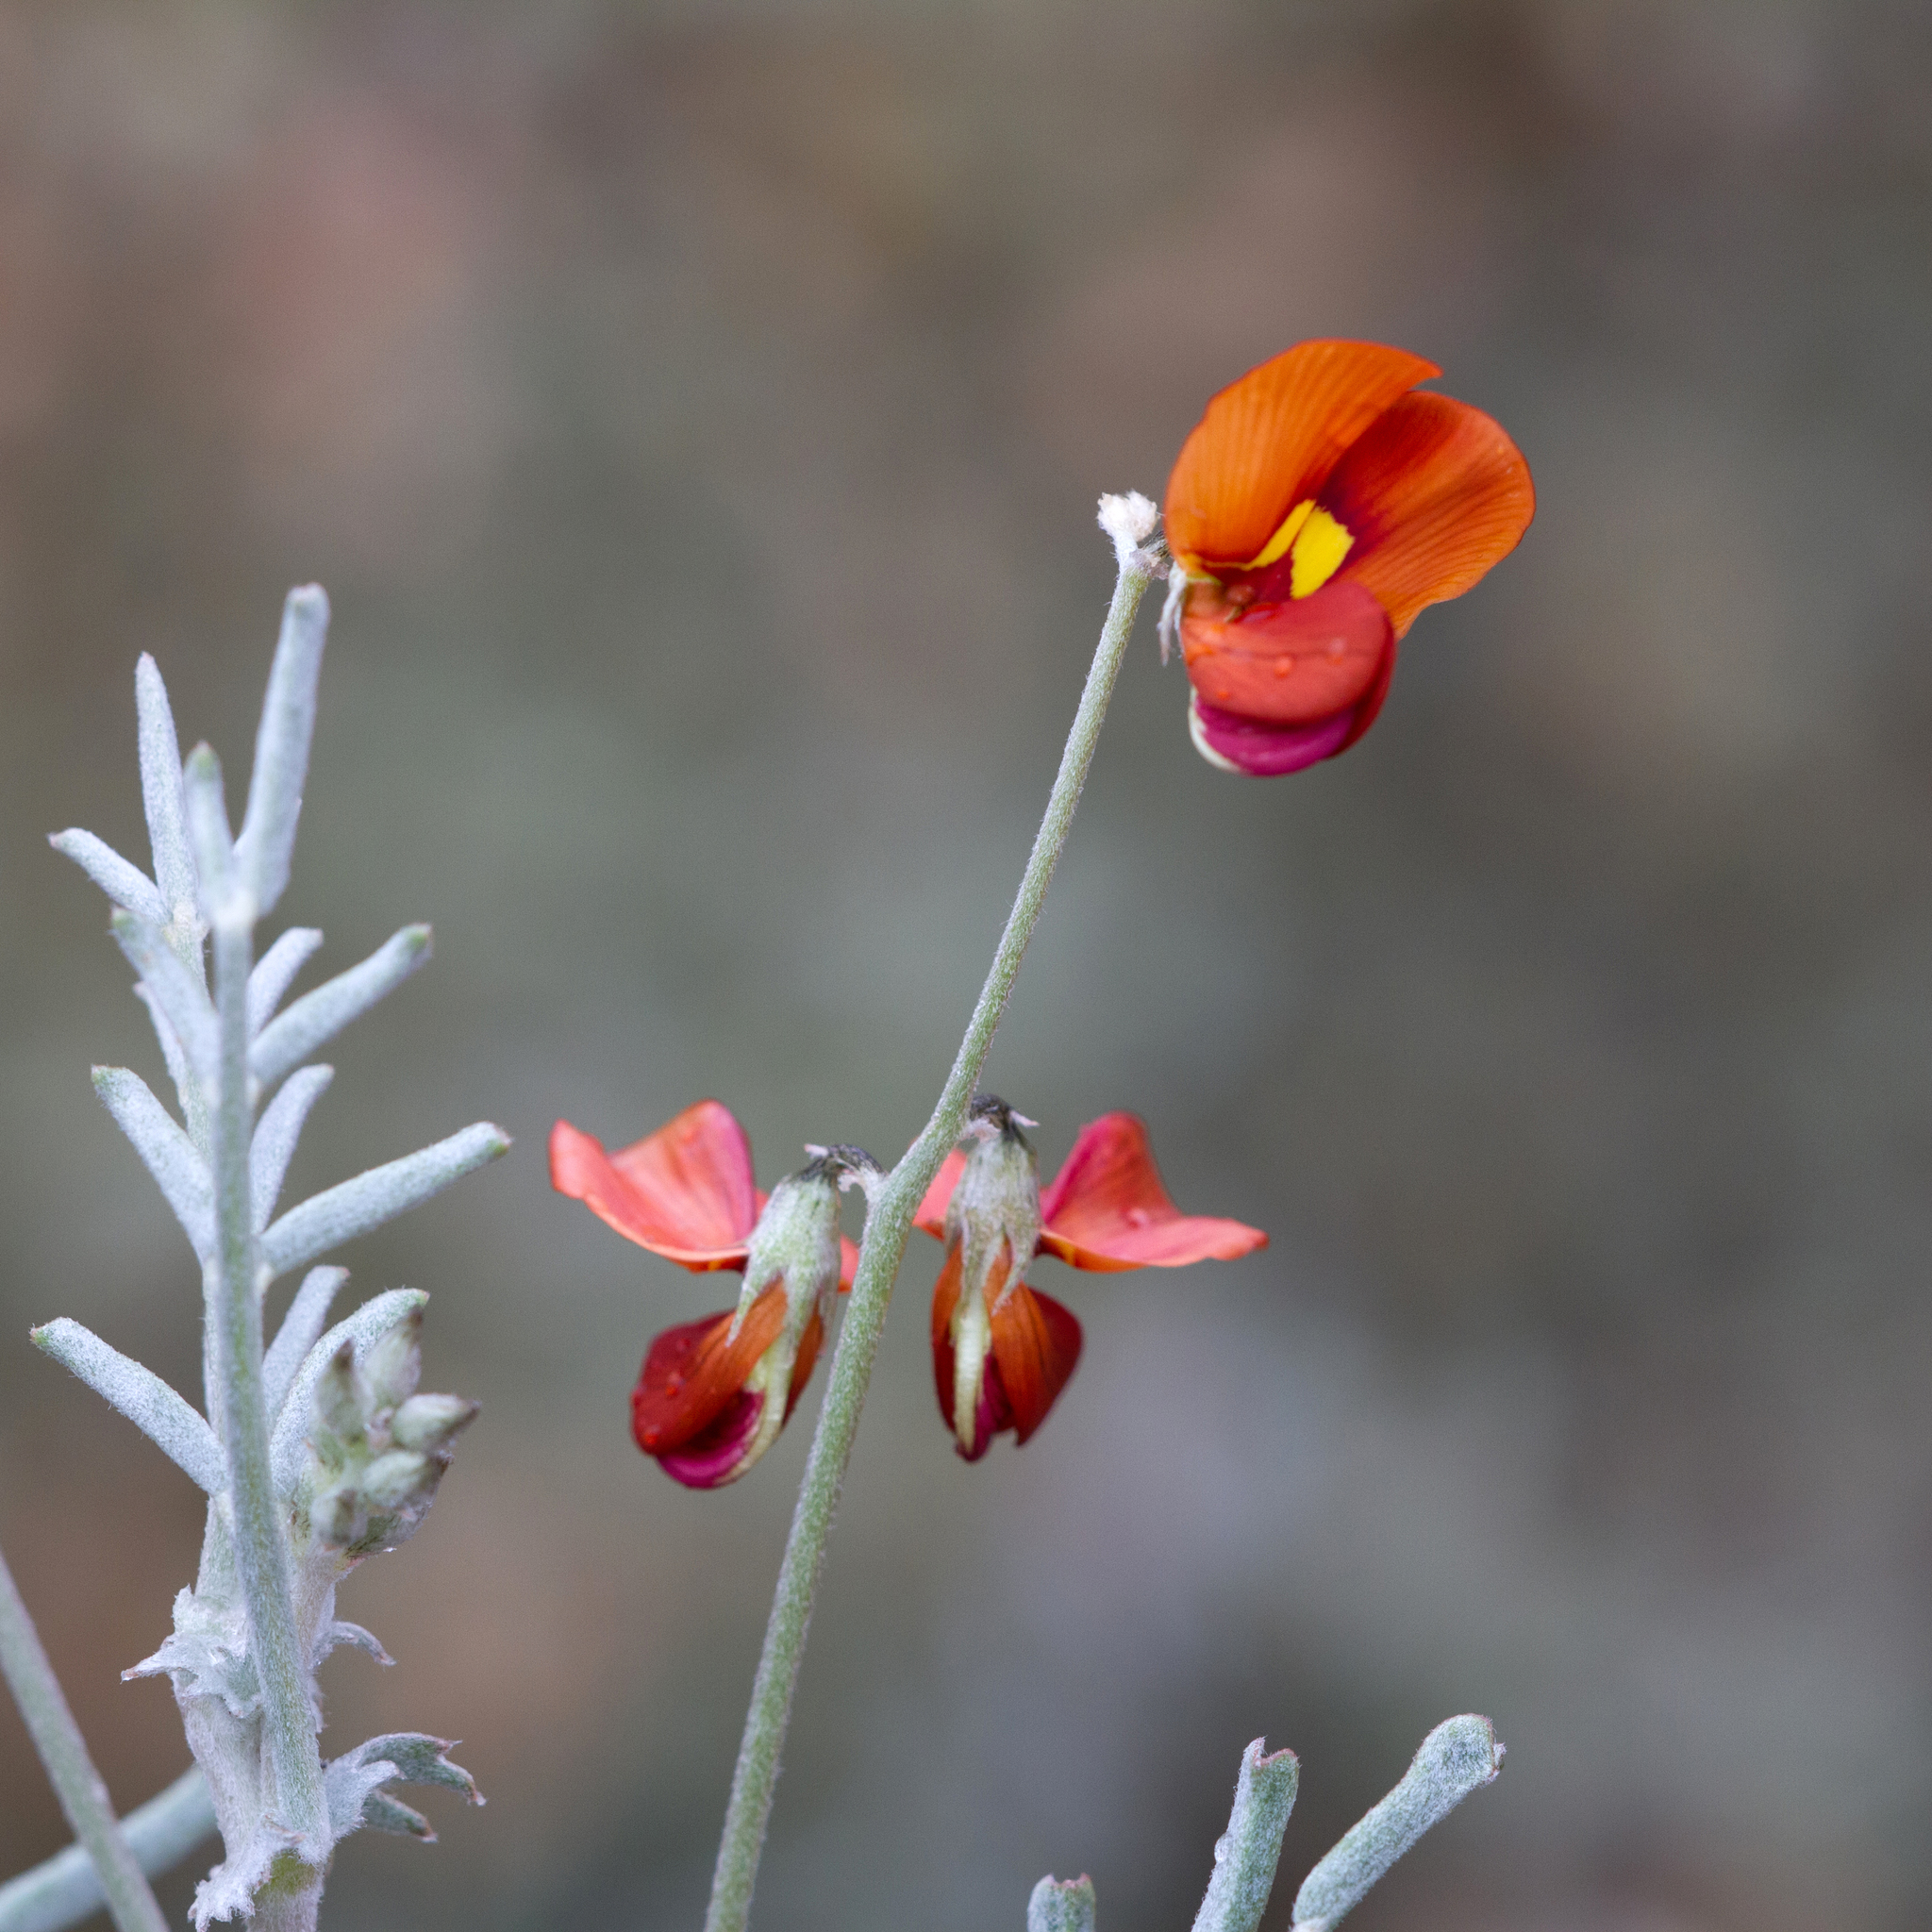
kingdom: Plantae
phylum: Tracheophyta
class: Magnoliopsida
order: Fabales
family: Fabaceae
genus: Swainsona
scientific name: Swainsona stipularis
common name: Orange darling-pea
